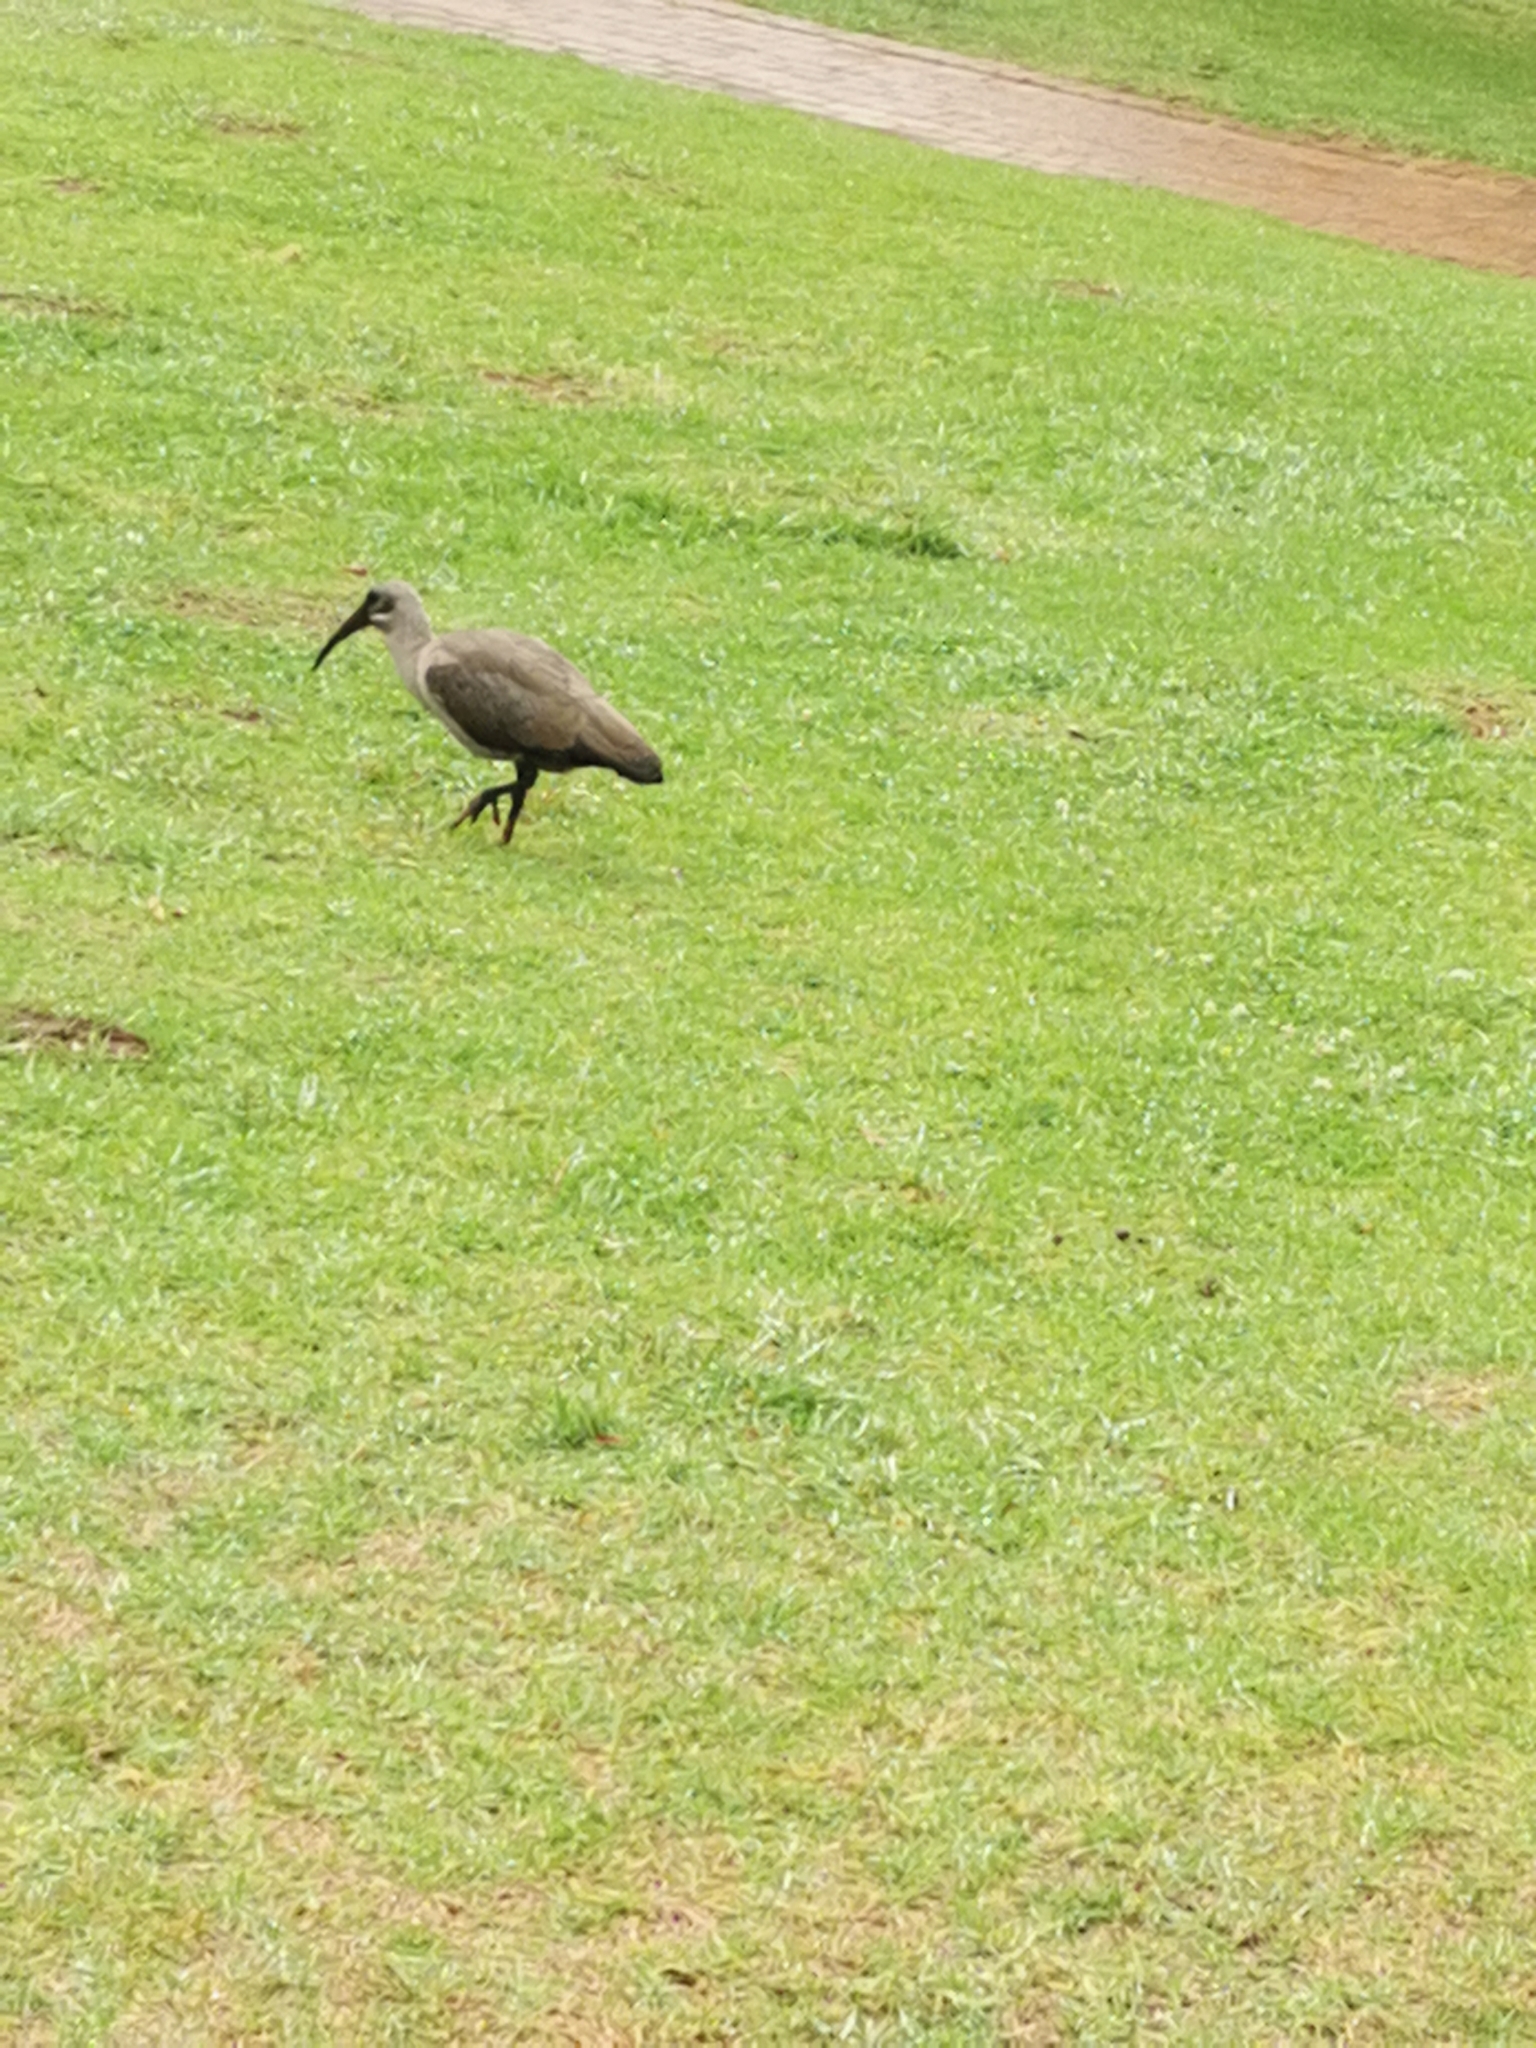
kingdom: Animalia
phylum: Chordata
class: Aves
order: Pelecaniformes
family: Threskiornithidae
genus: Bostrychia
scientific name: Bostrychia hagedash
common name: Hadada ibis
